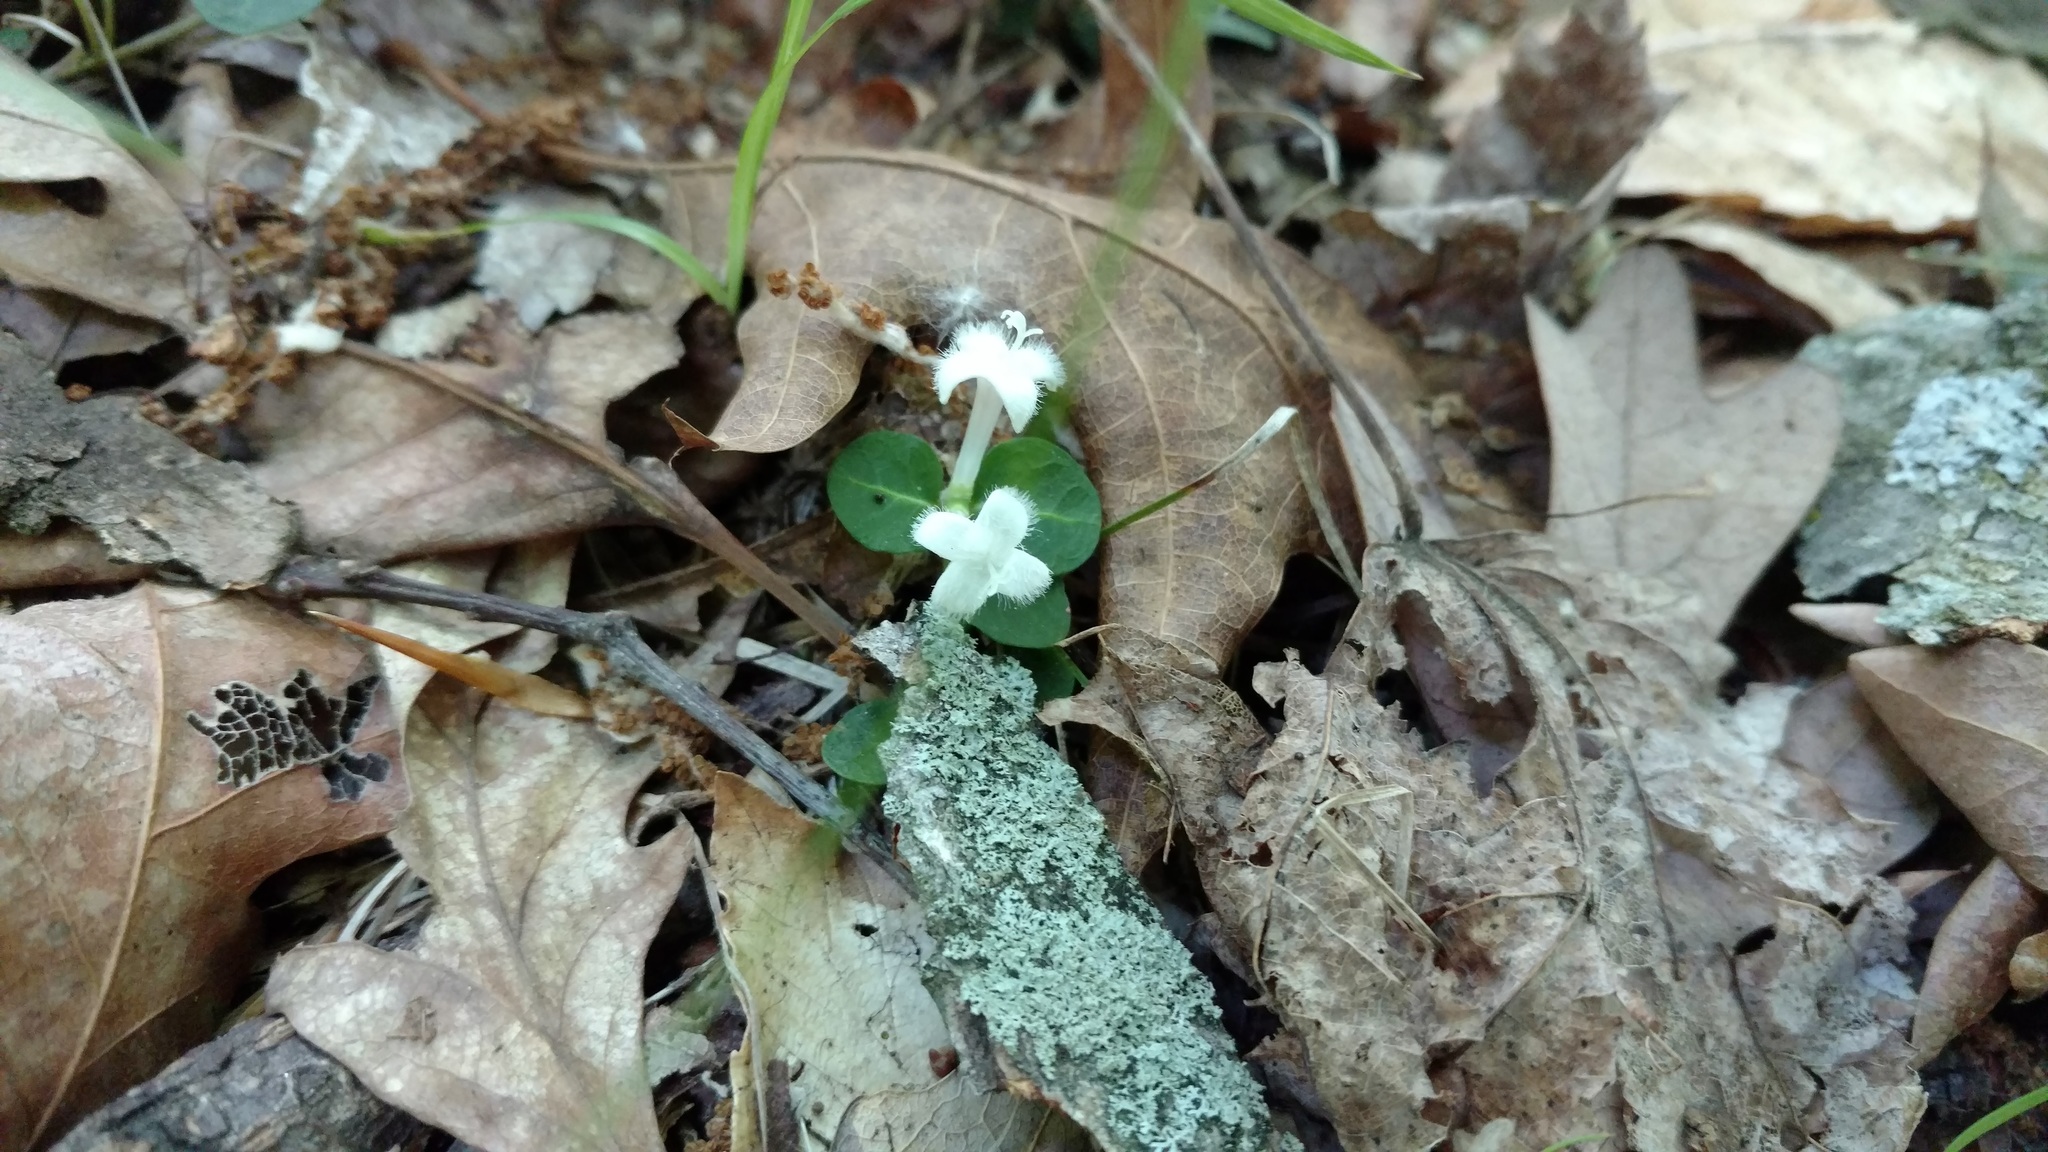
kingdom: Plantae
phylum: Tracheophyta
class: Magnoliopsida
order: Gentianales
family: Rubiaceae
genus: Mitchella
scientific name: Mitchella repens
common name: Partridge-berry
